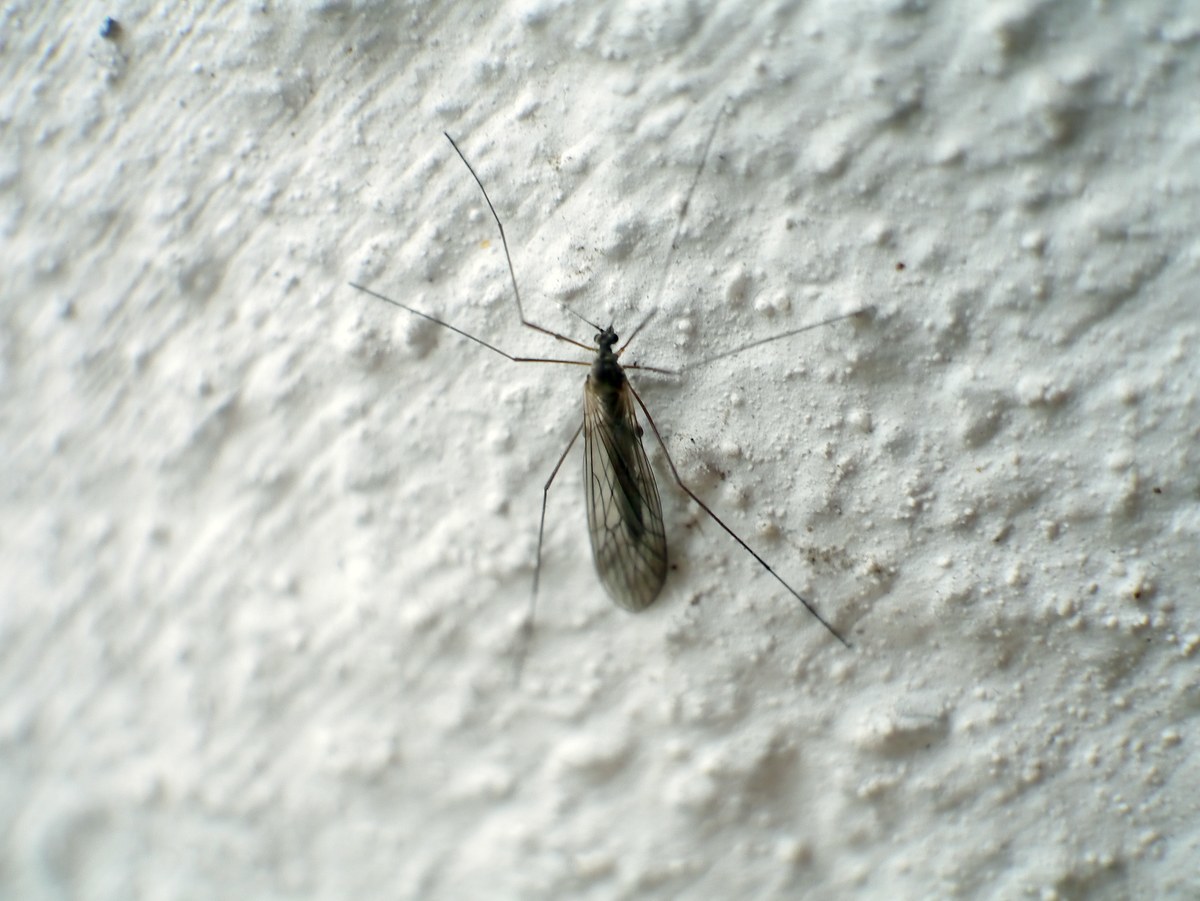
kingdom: Animalia
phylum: Arthropoda
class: Insecta
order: Diptera
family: Trichoceridae
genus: Trichocera
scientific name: Trichocera
